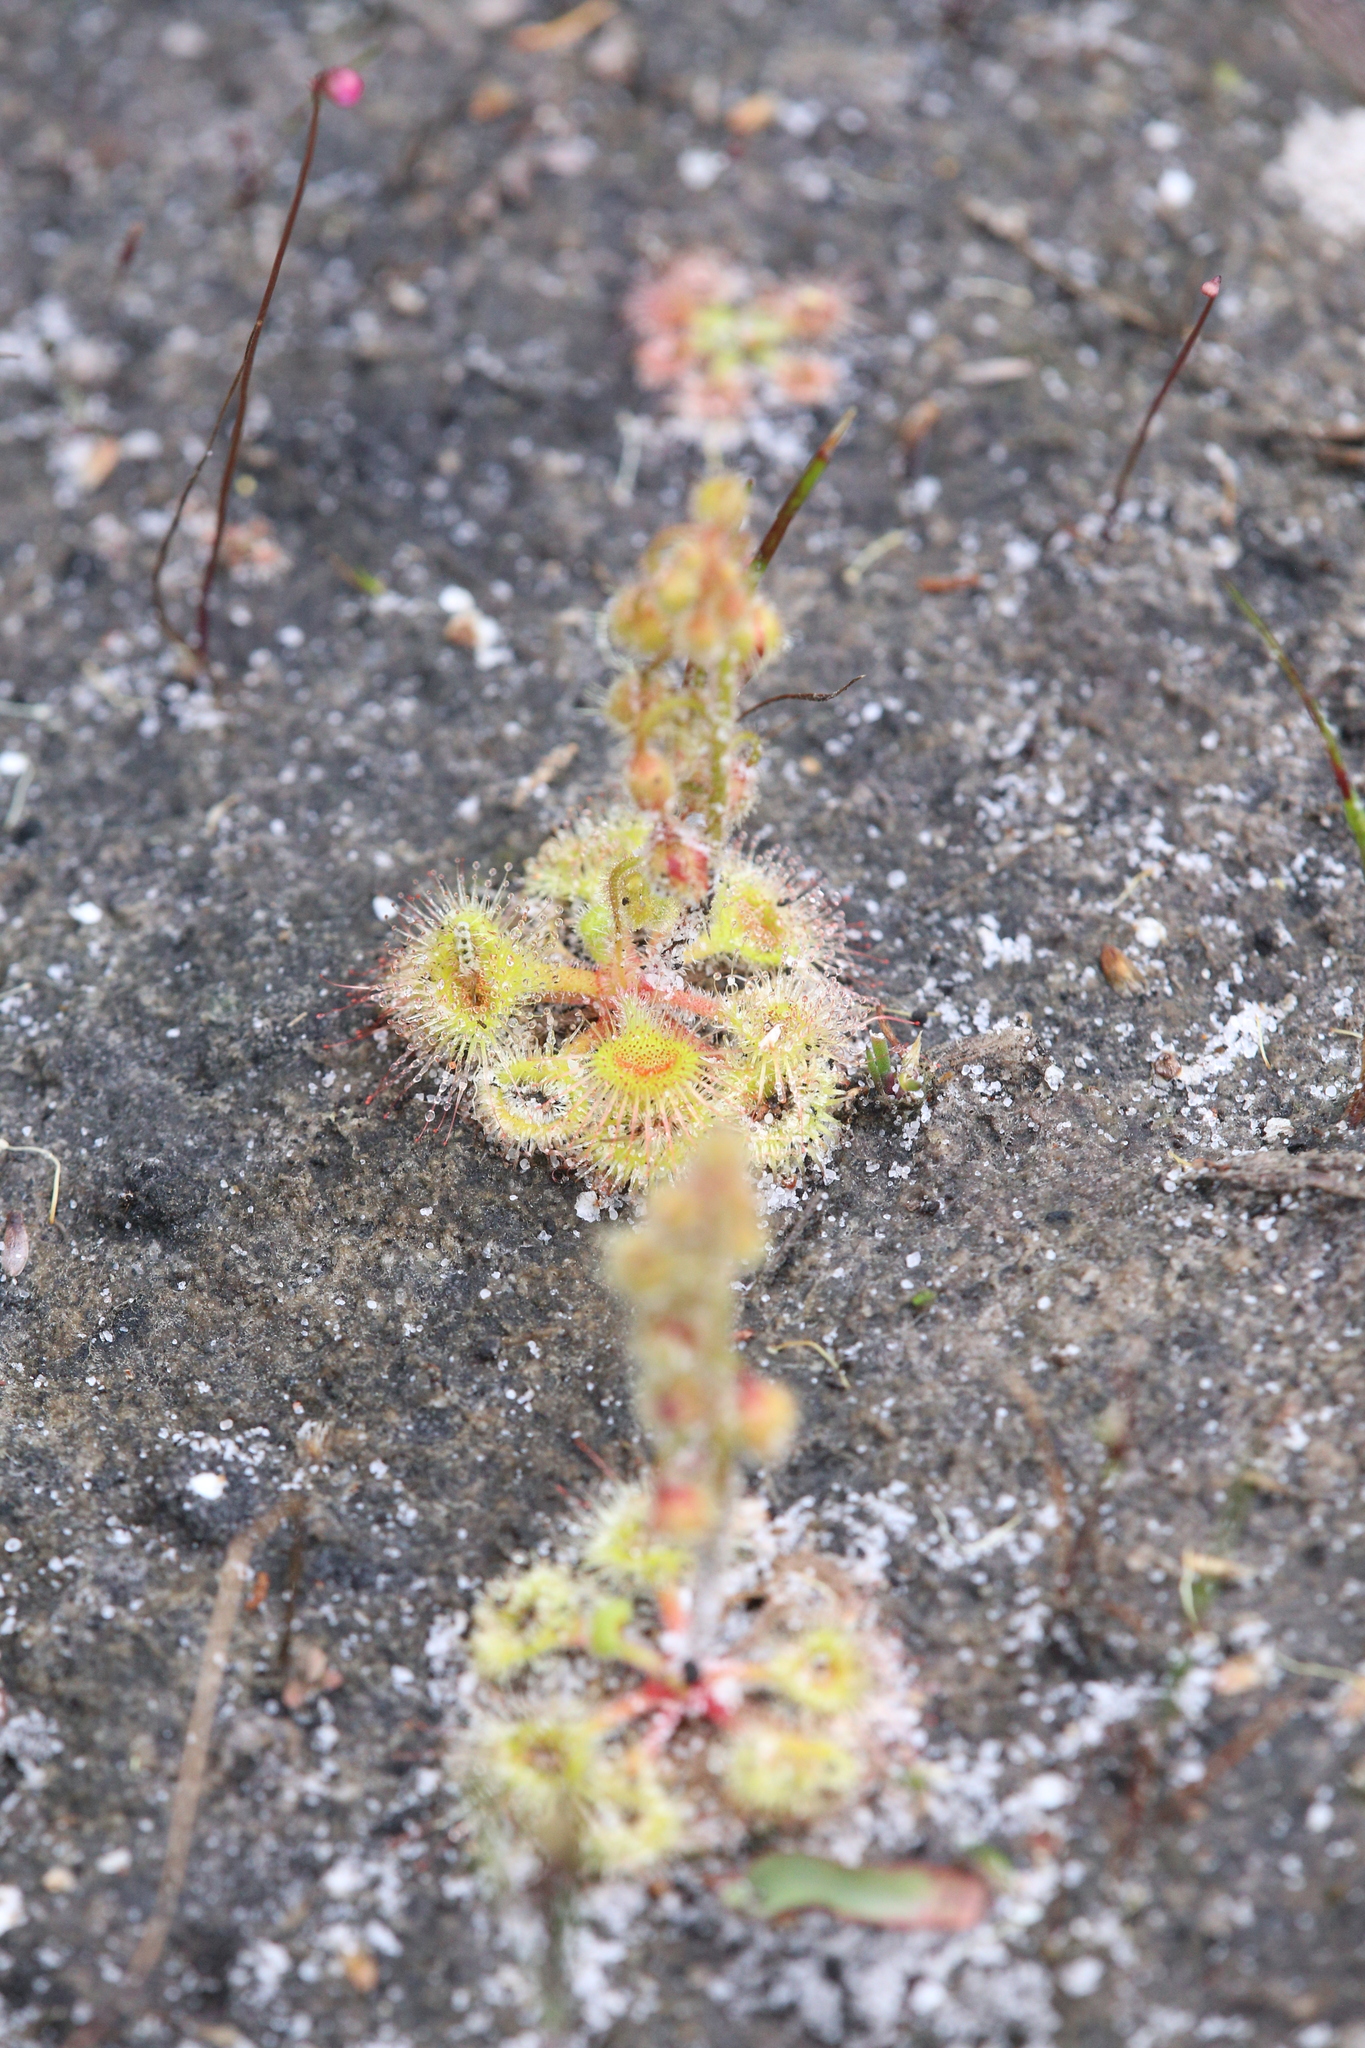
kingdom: Plantae
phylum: Tracheophyta
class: Magnoliopsida
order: Caryophyllales
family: Droseraceae
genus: Drosera
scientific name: Drosera glanduligera
